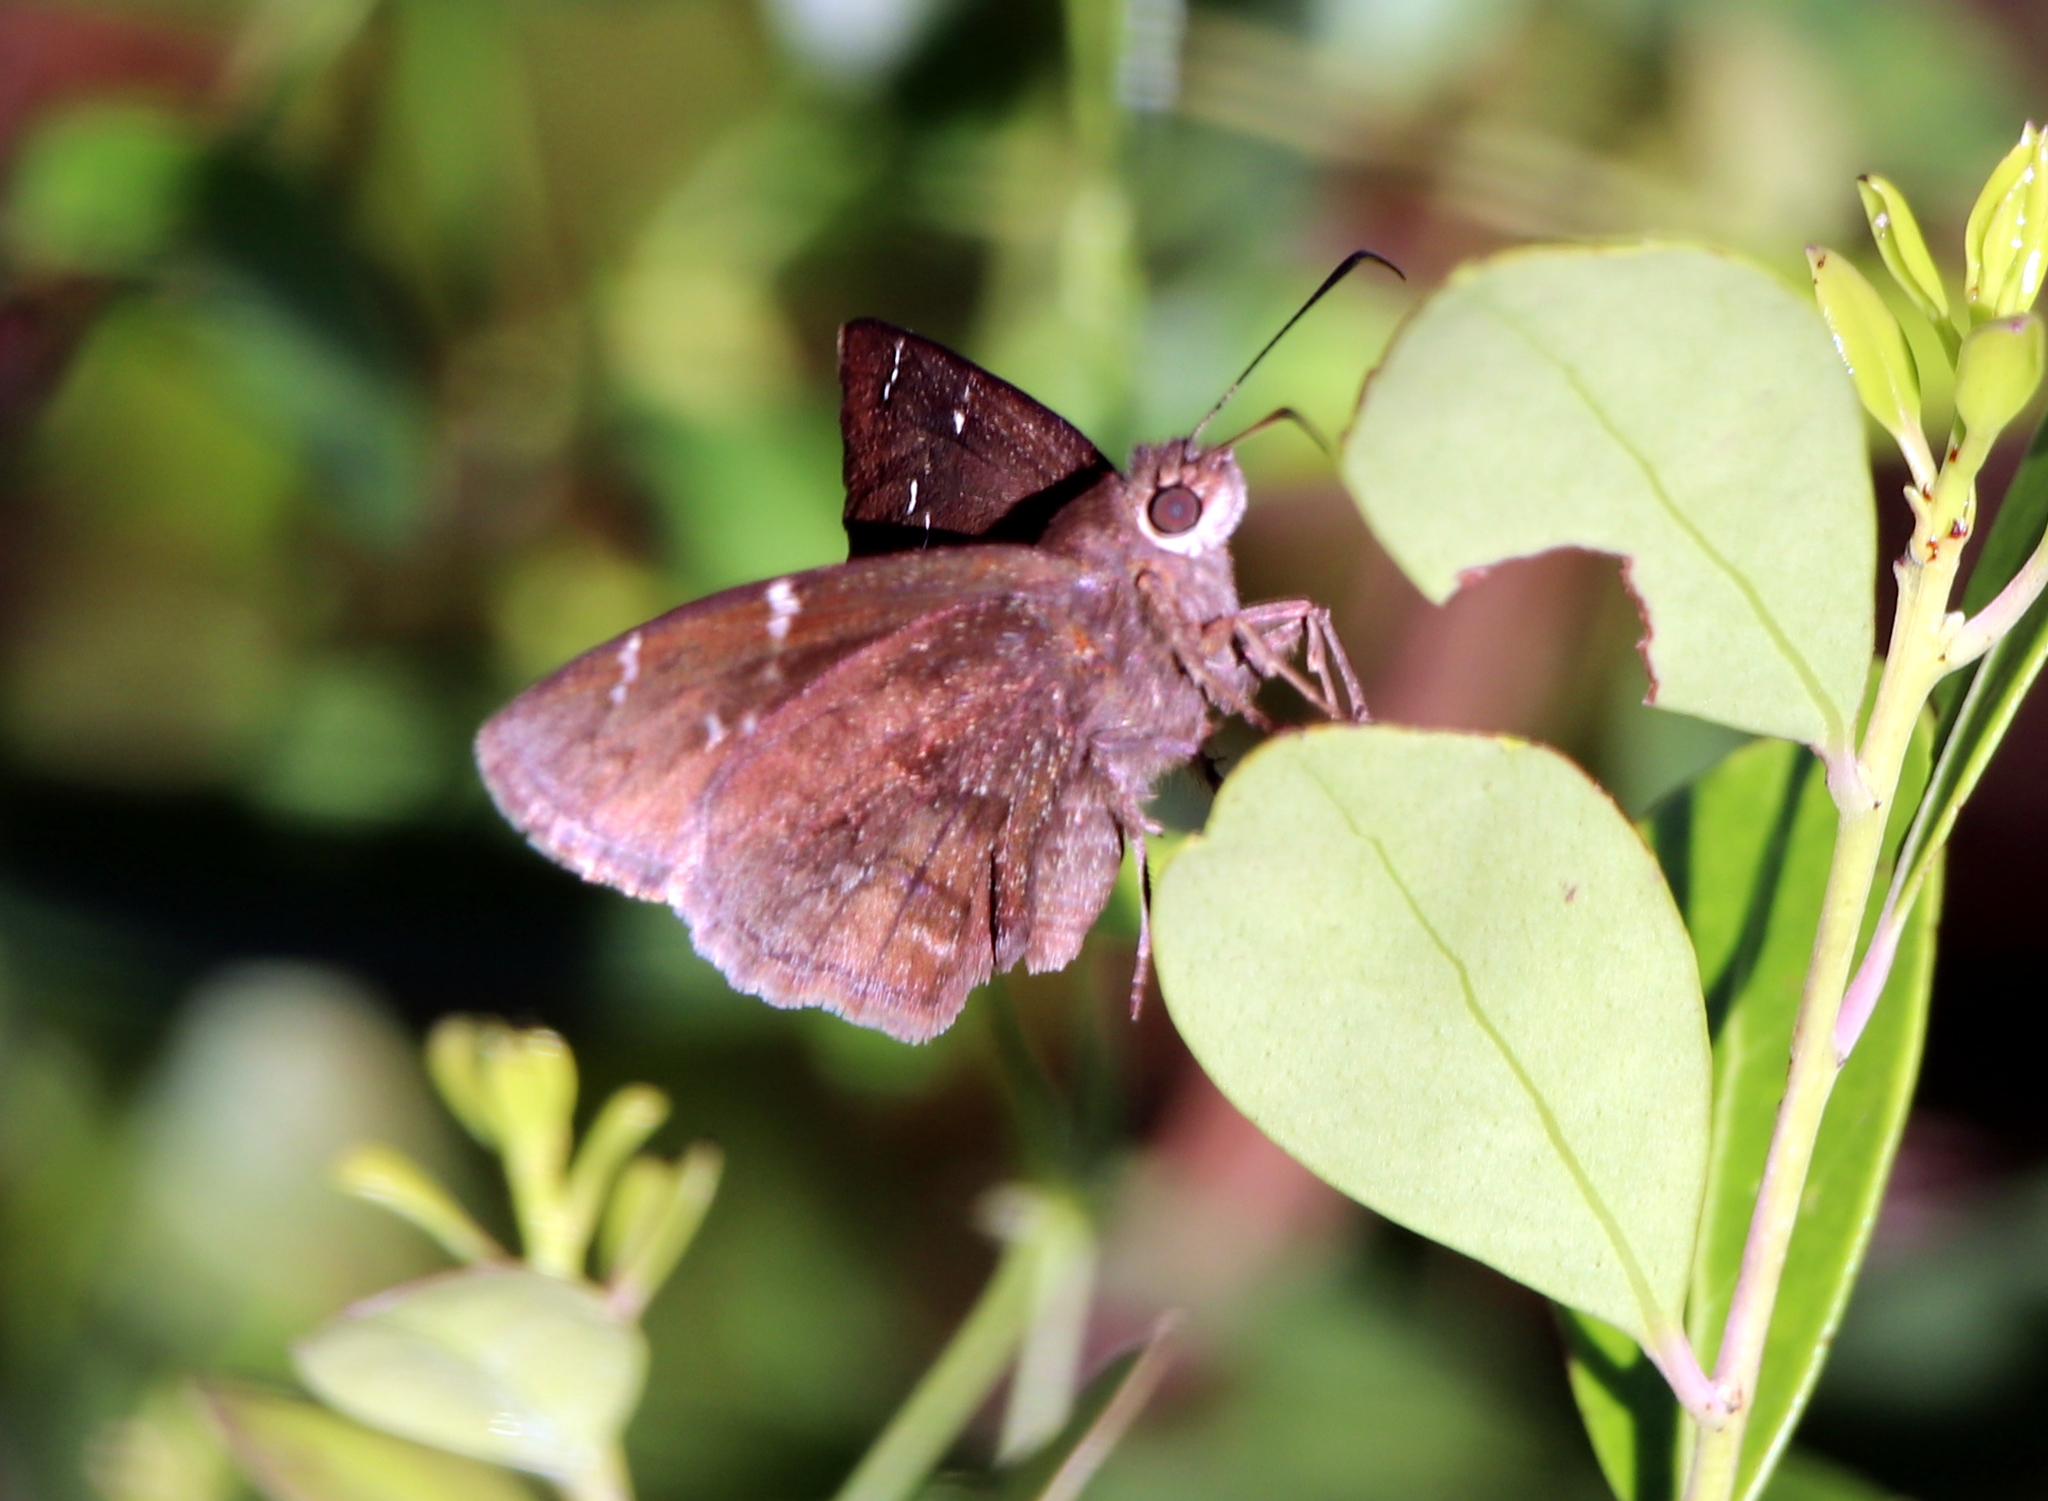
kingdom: Animalia
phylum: Arthropoda
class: Insecta
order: Lepidoptera
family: Hesperiidae
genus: Thorybes
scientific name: Thorybes daunus
